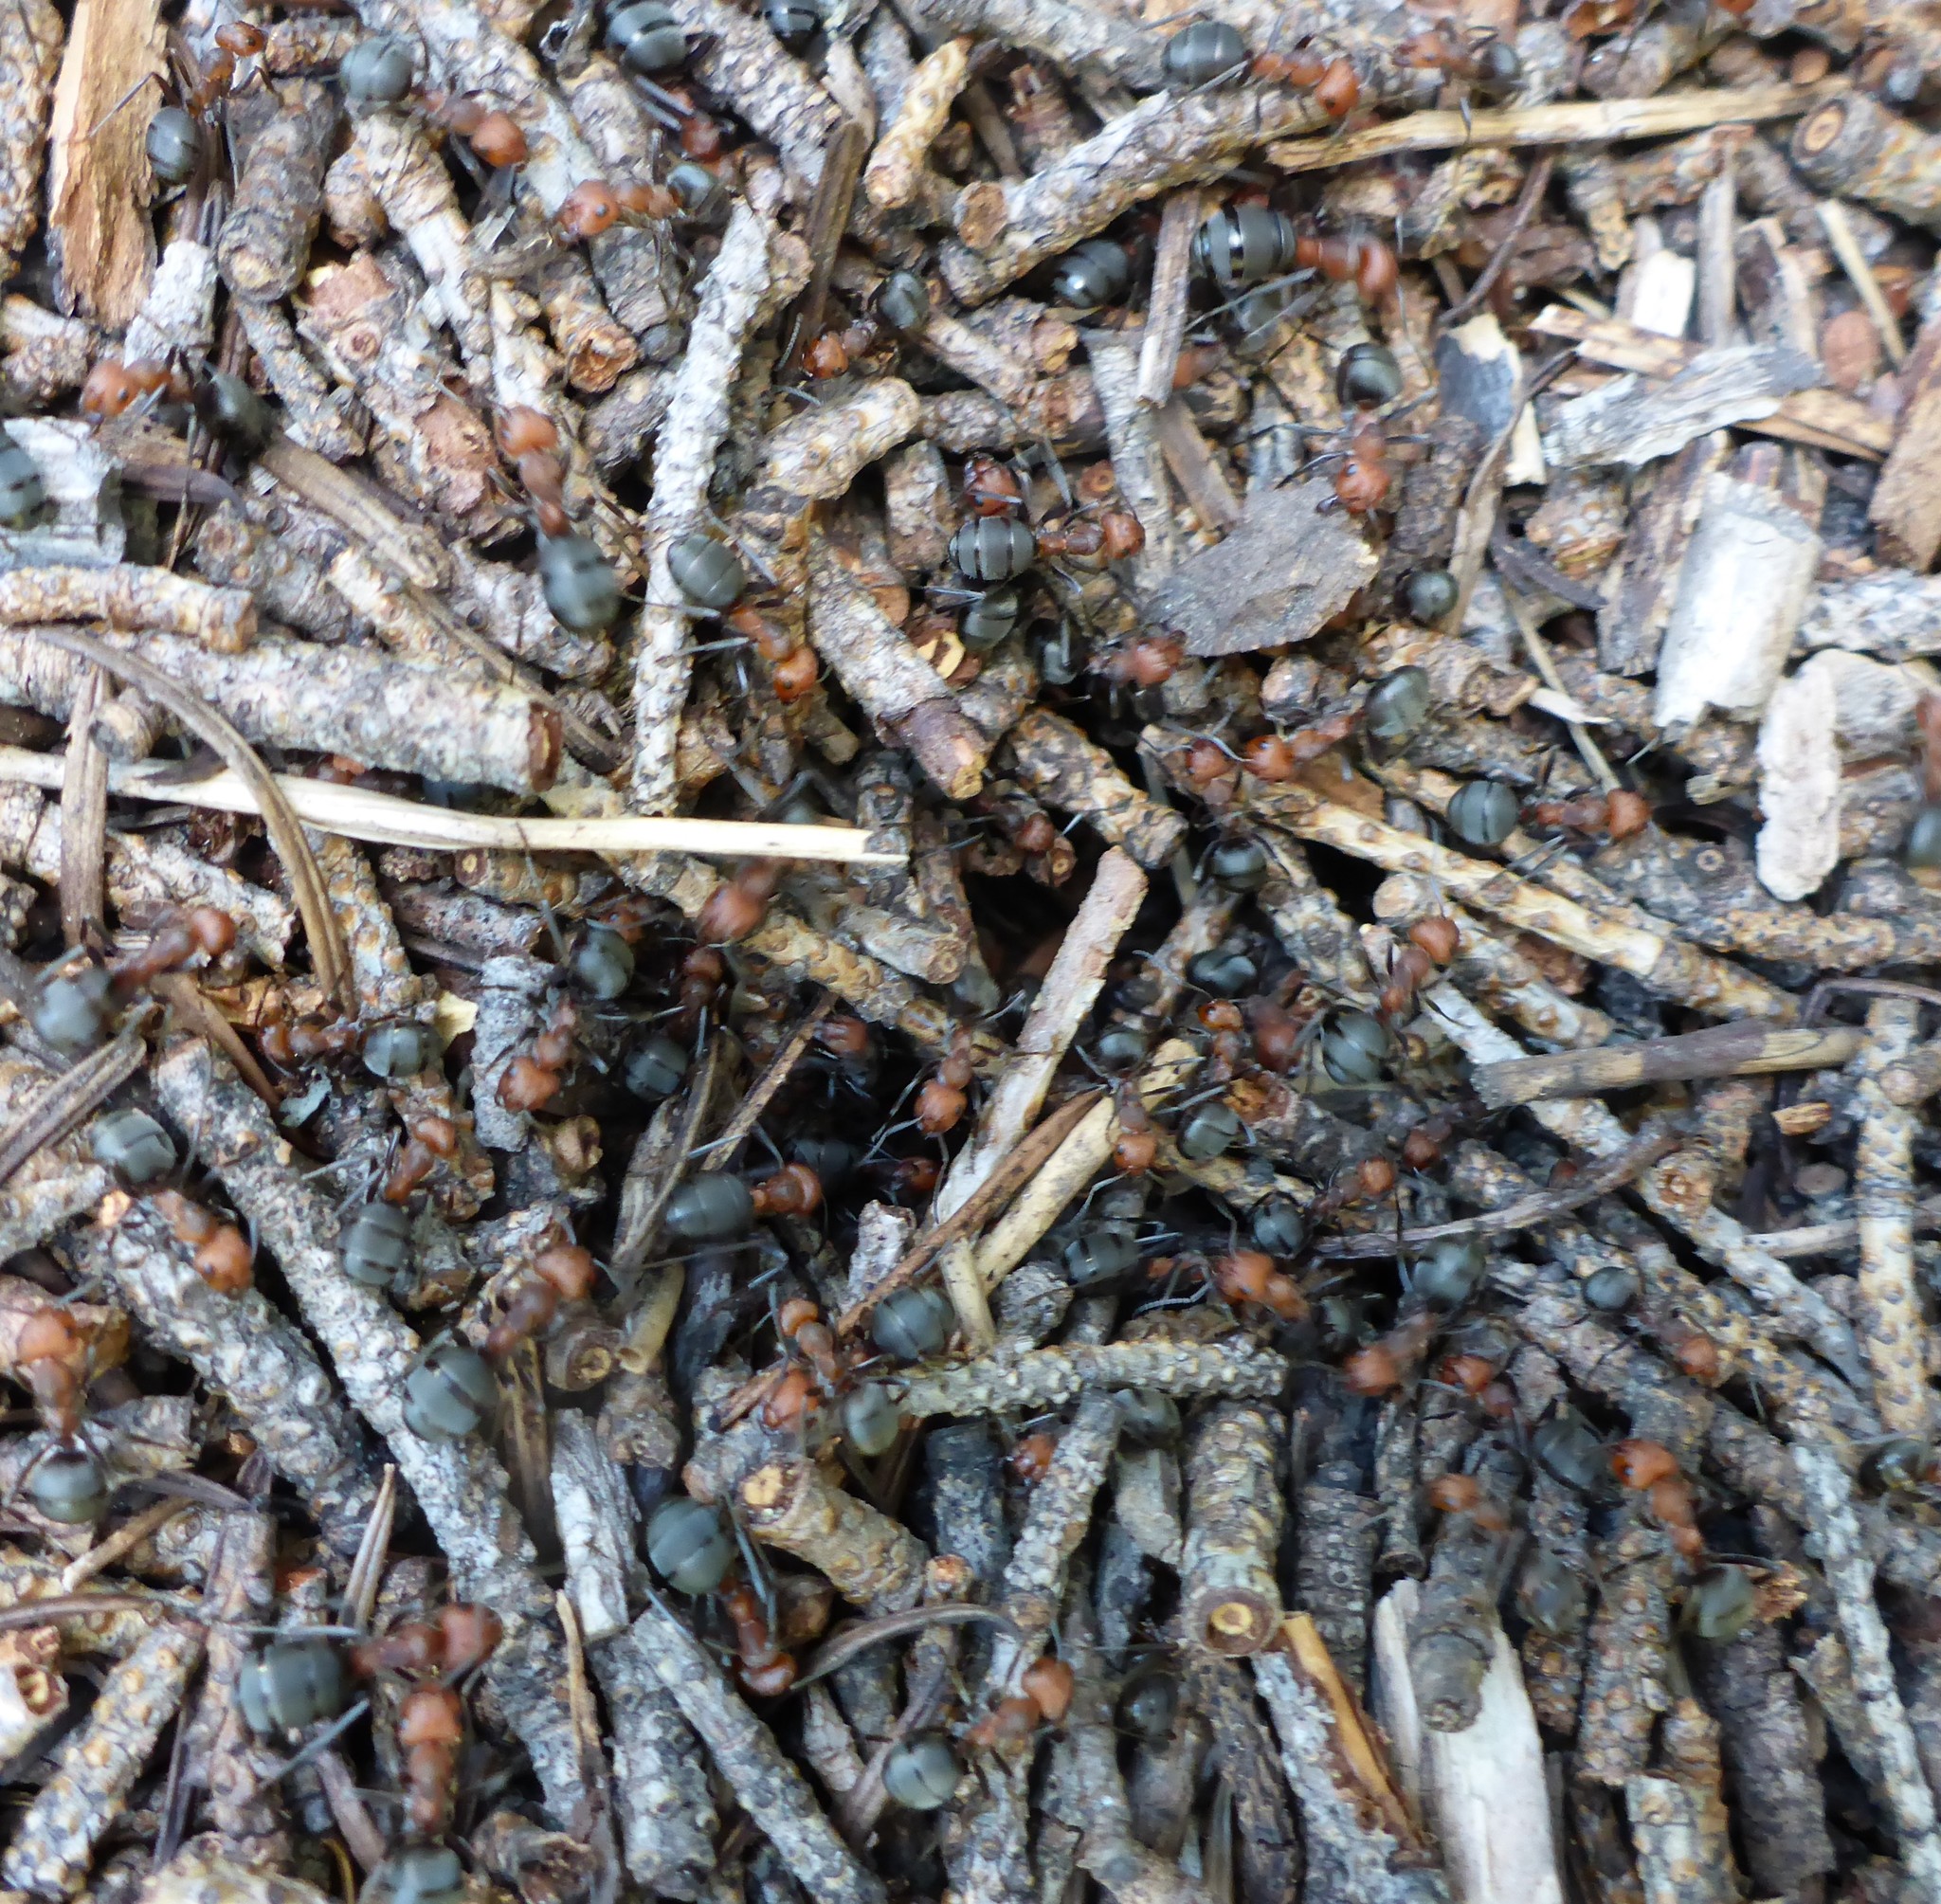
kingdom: Animalia
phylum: Arthropoda
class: Insecta
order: Hymenoptera
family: Formicidae
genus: Formica
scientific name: Formica obscuripes
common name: Western thatching ant
